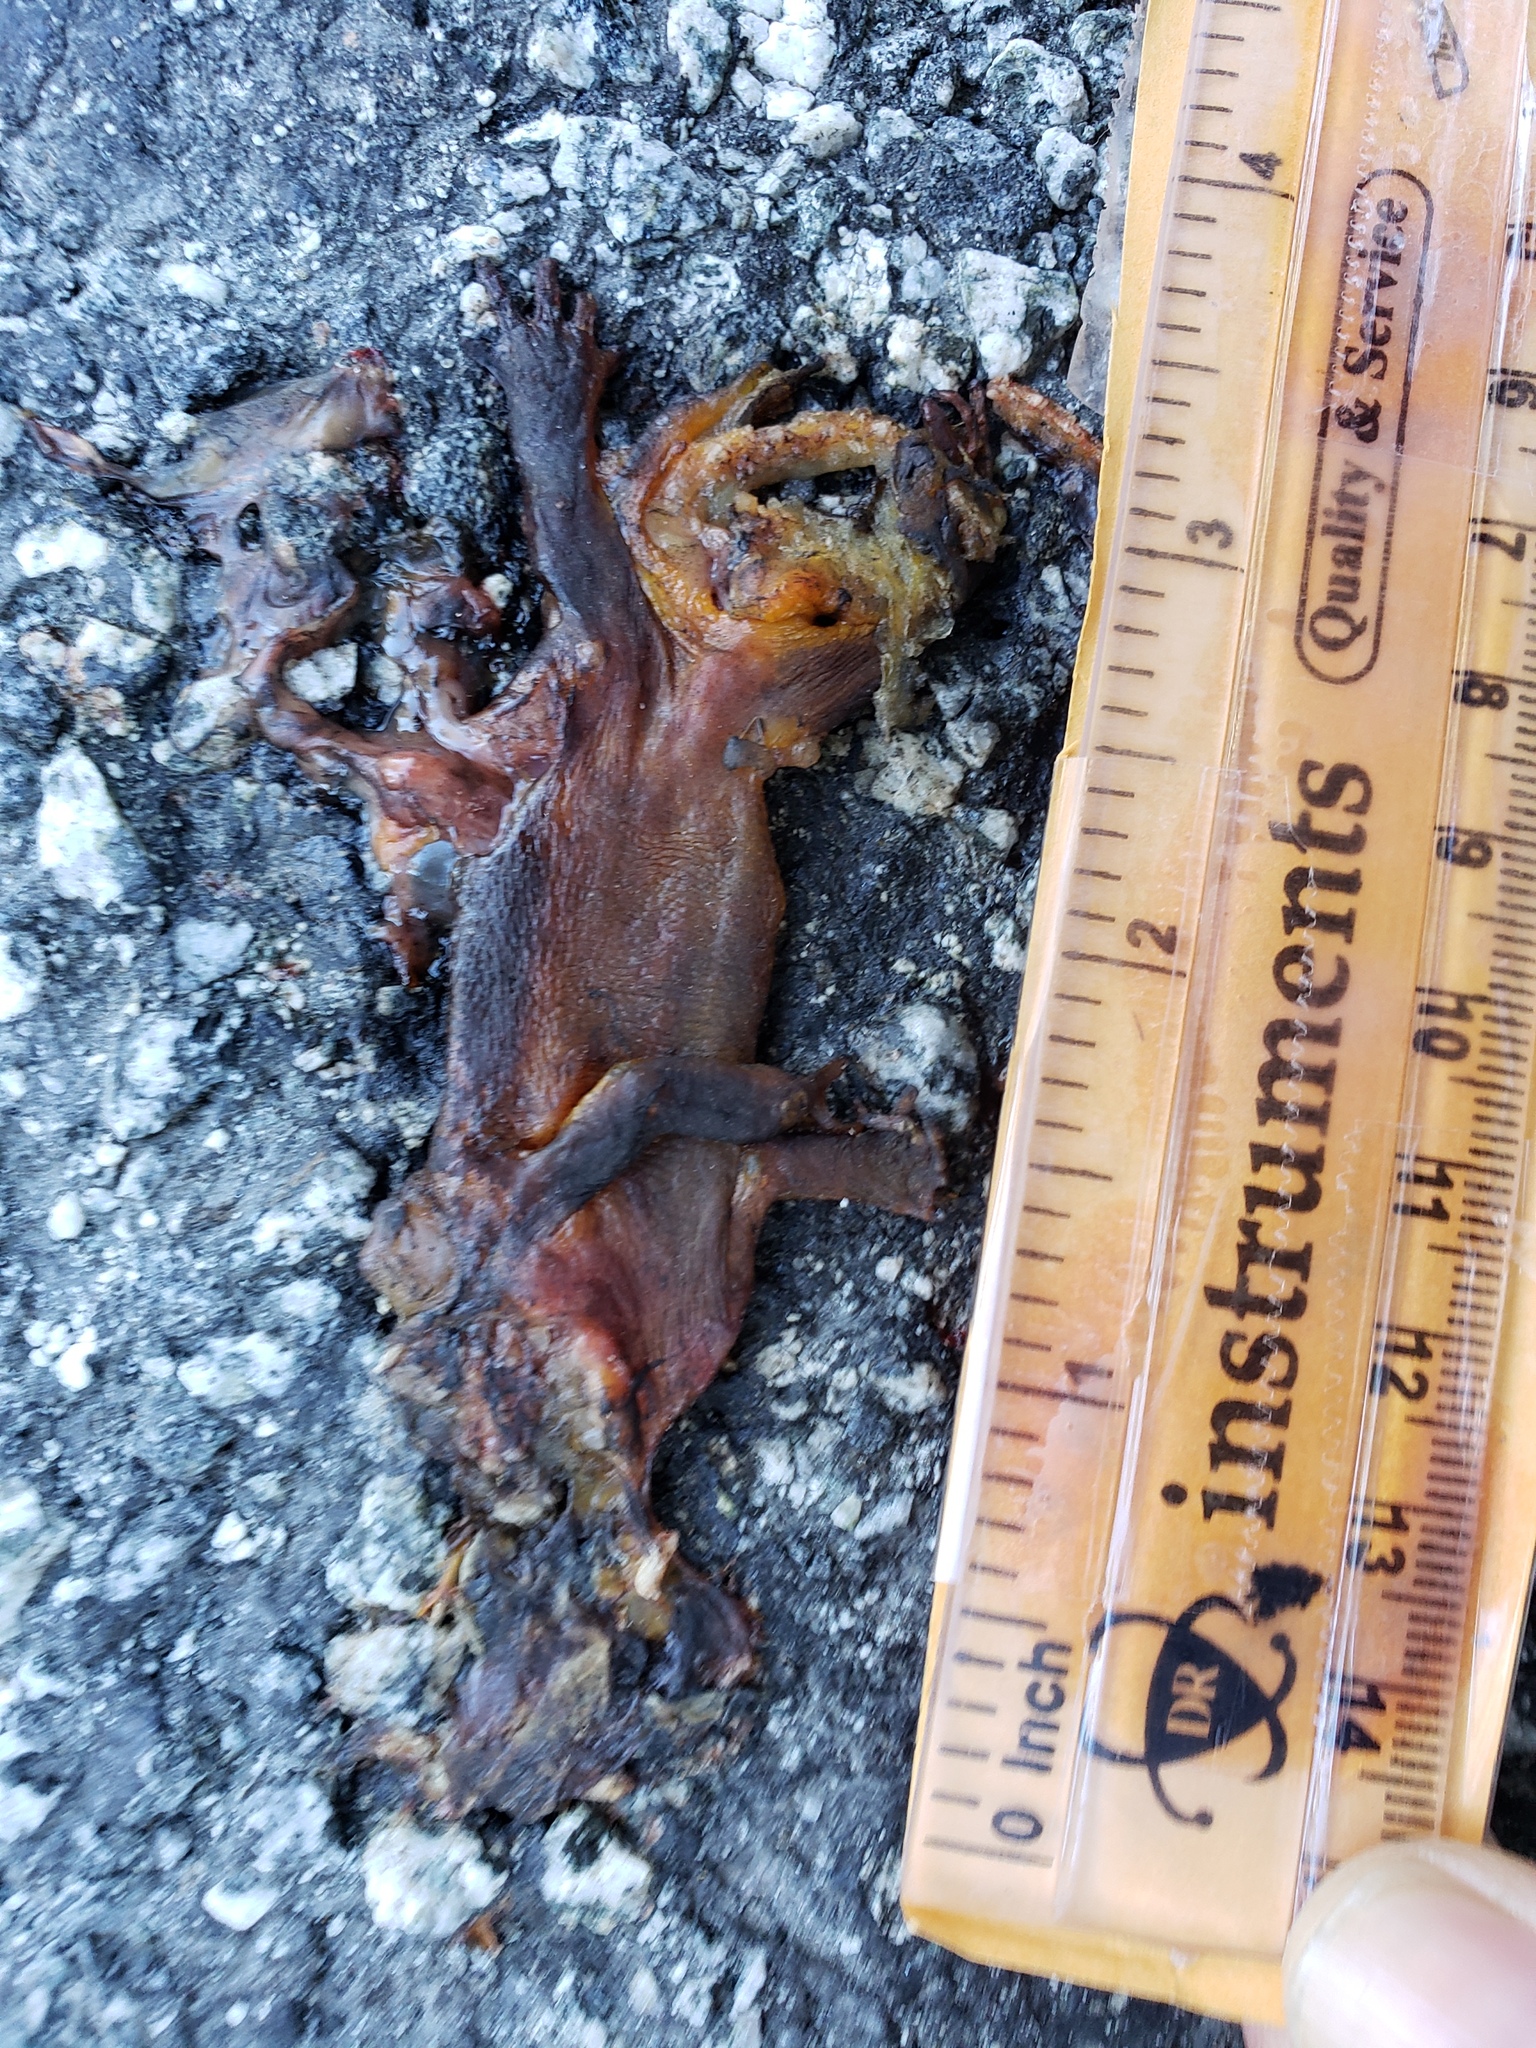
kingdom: Animalia
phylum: Chordata
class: Amphibia
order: Caudata
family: Salamandridae
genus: Taricha
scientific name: Taricha
